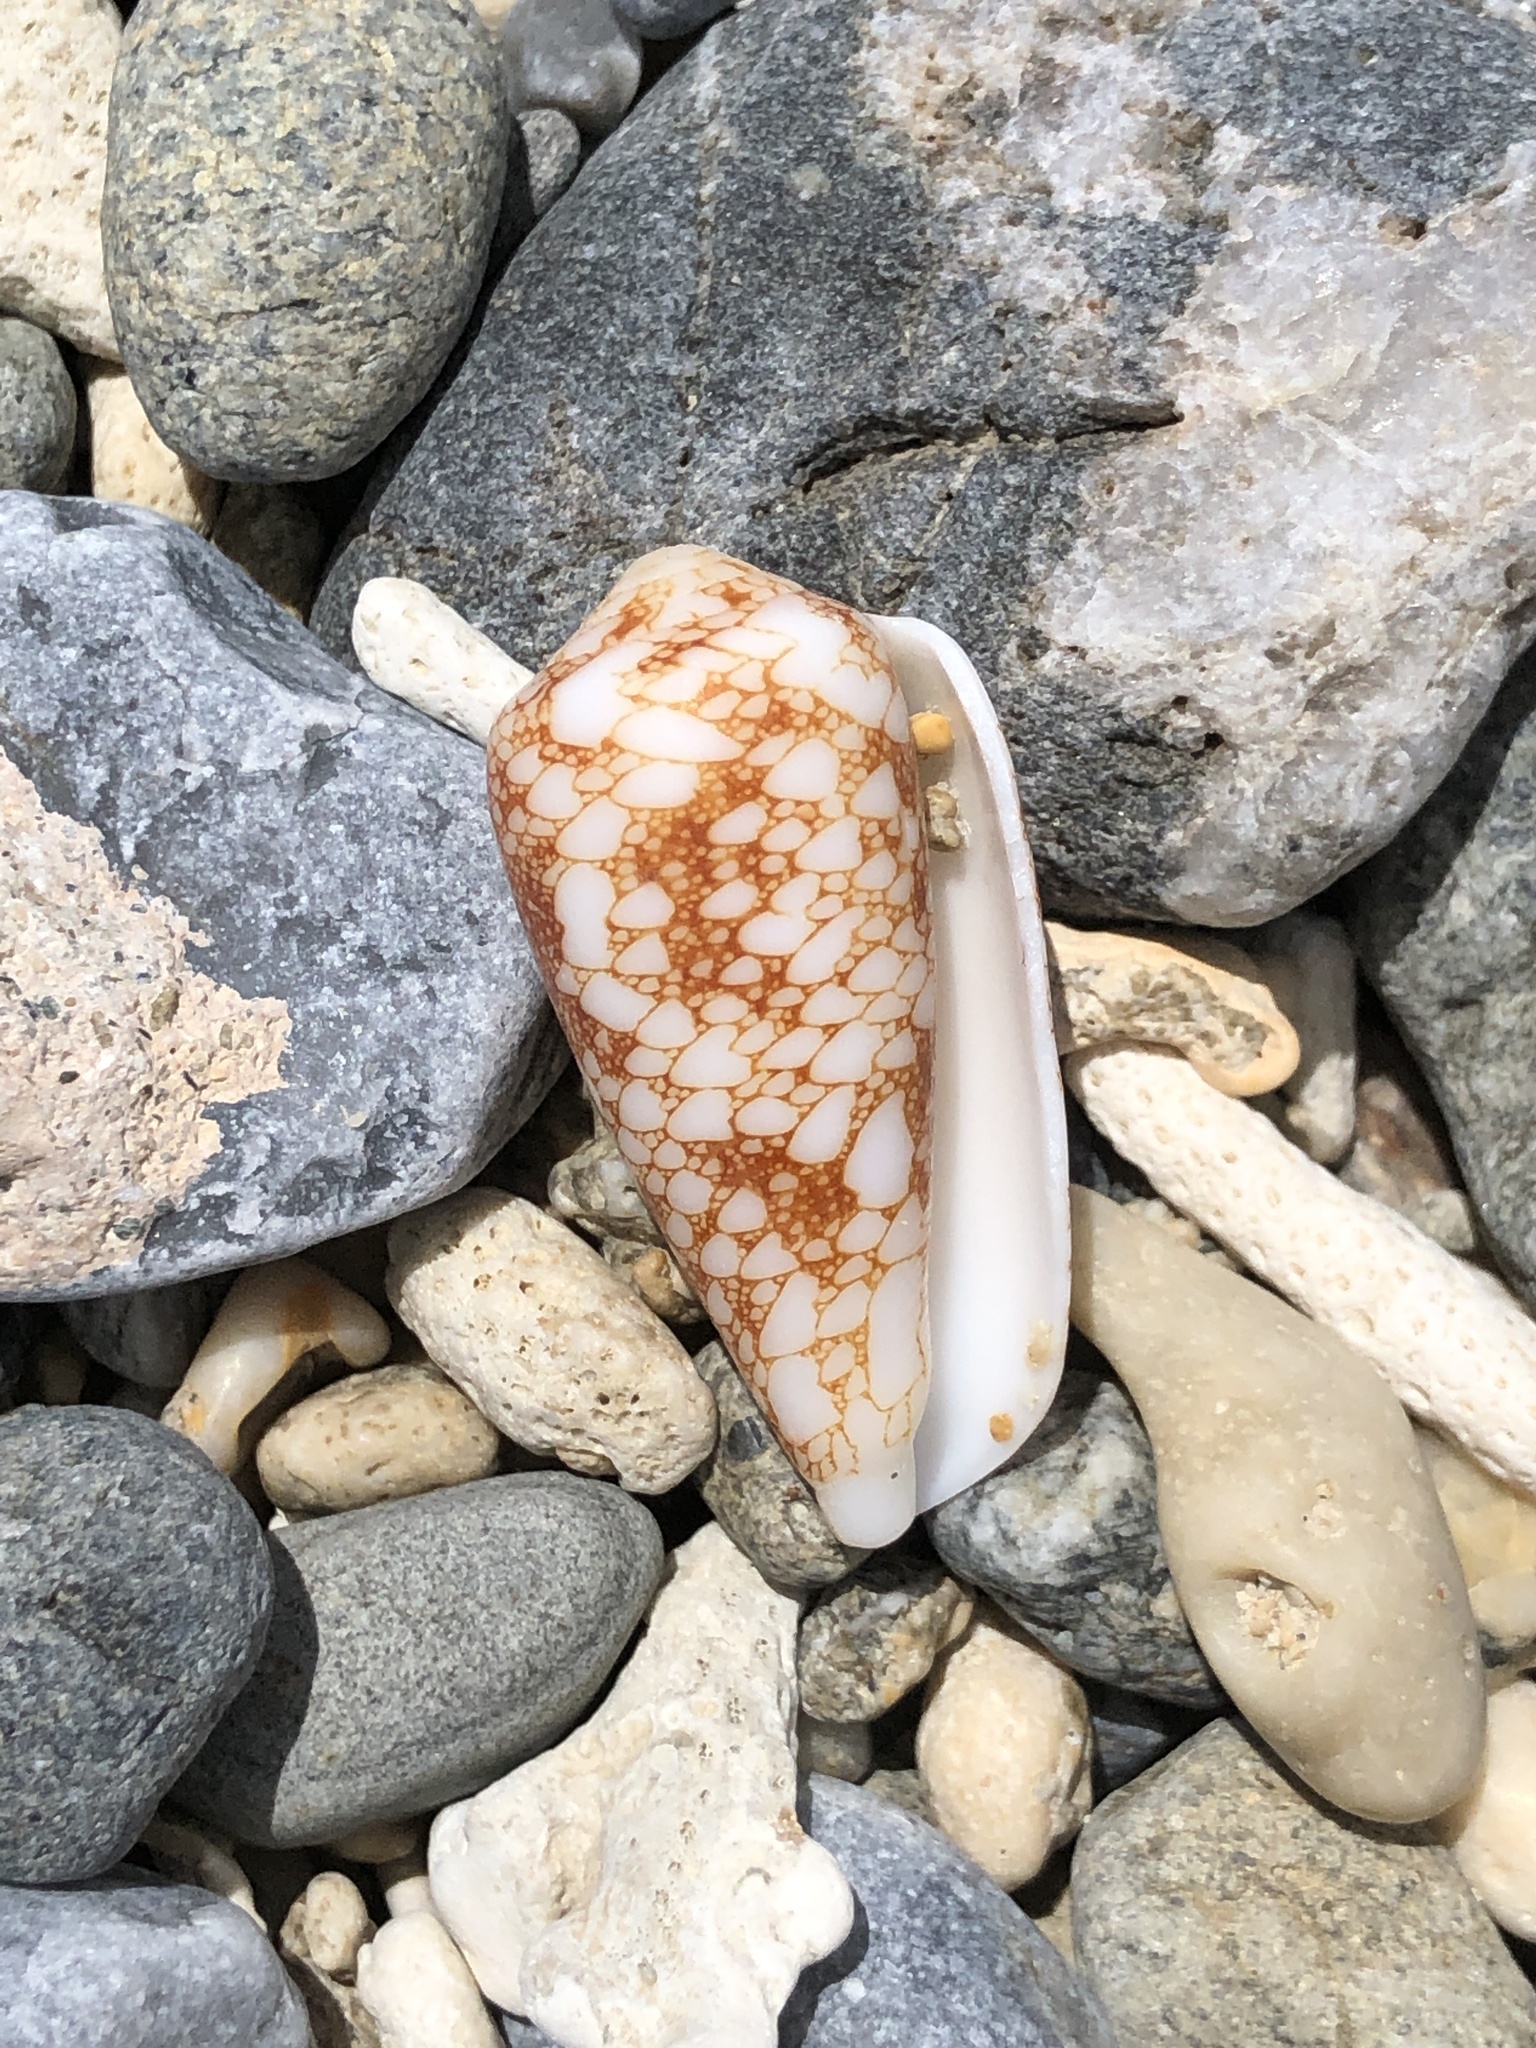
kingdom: Animalia
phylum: Mollusca
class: Gastropoda
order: Neogastropoda
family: Conidae
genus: Conus
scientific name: Conus omaria
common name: Omaria cone
